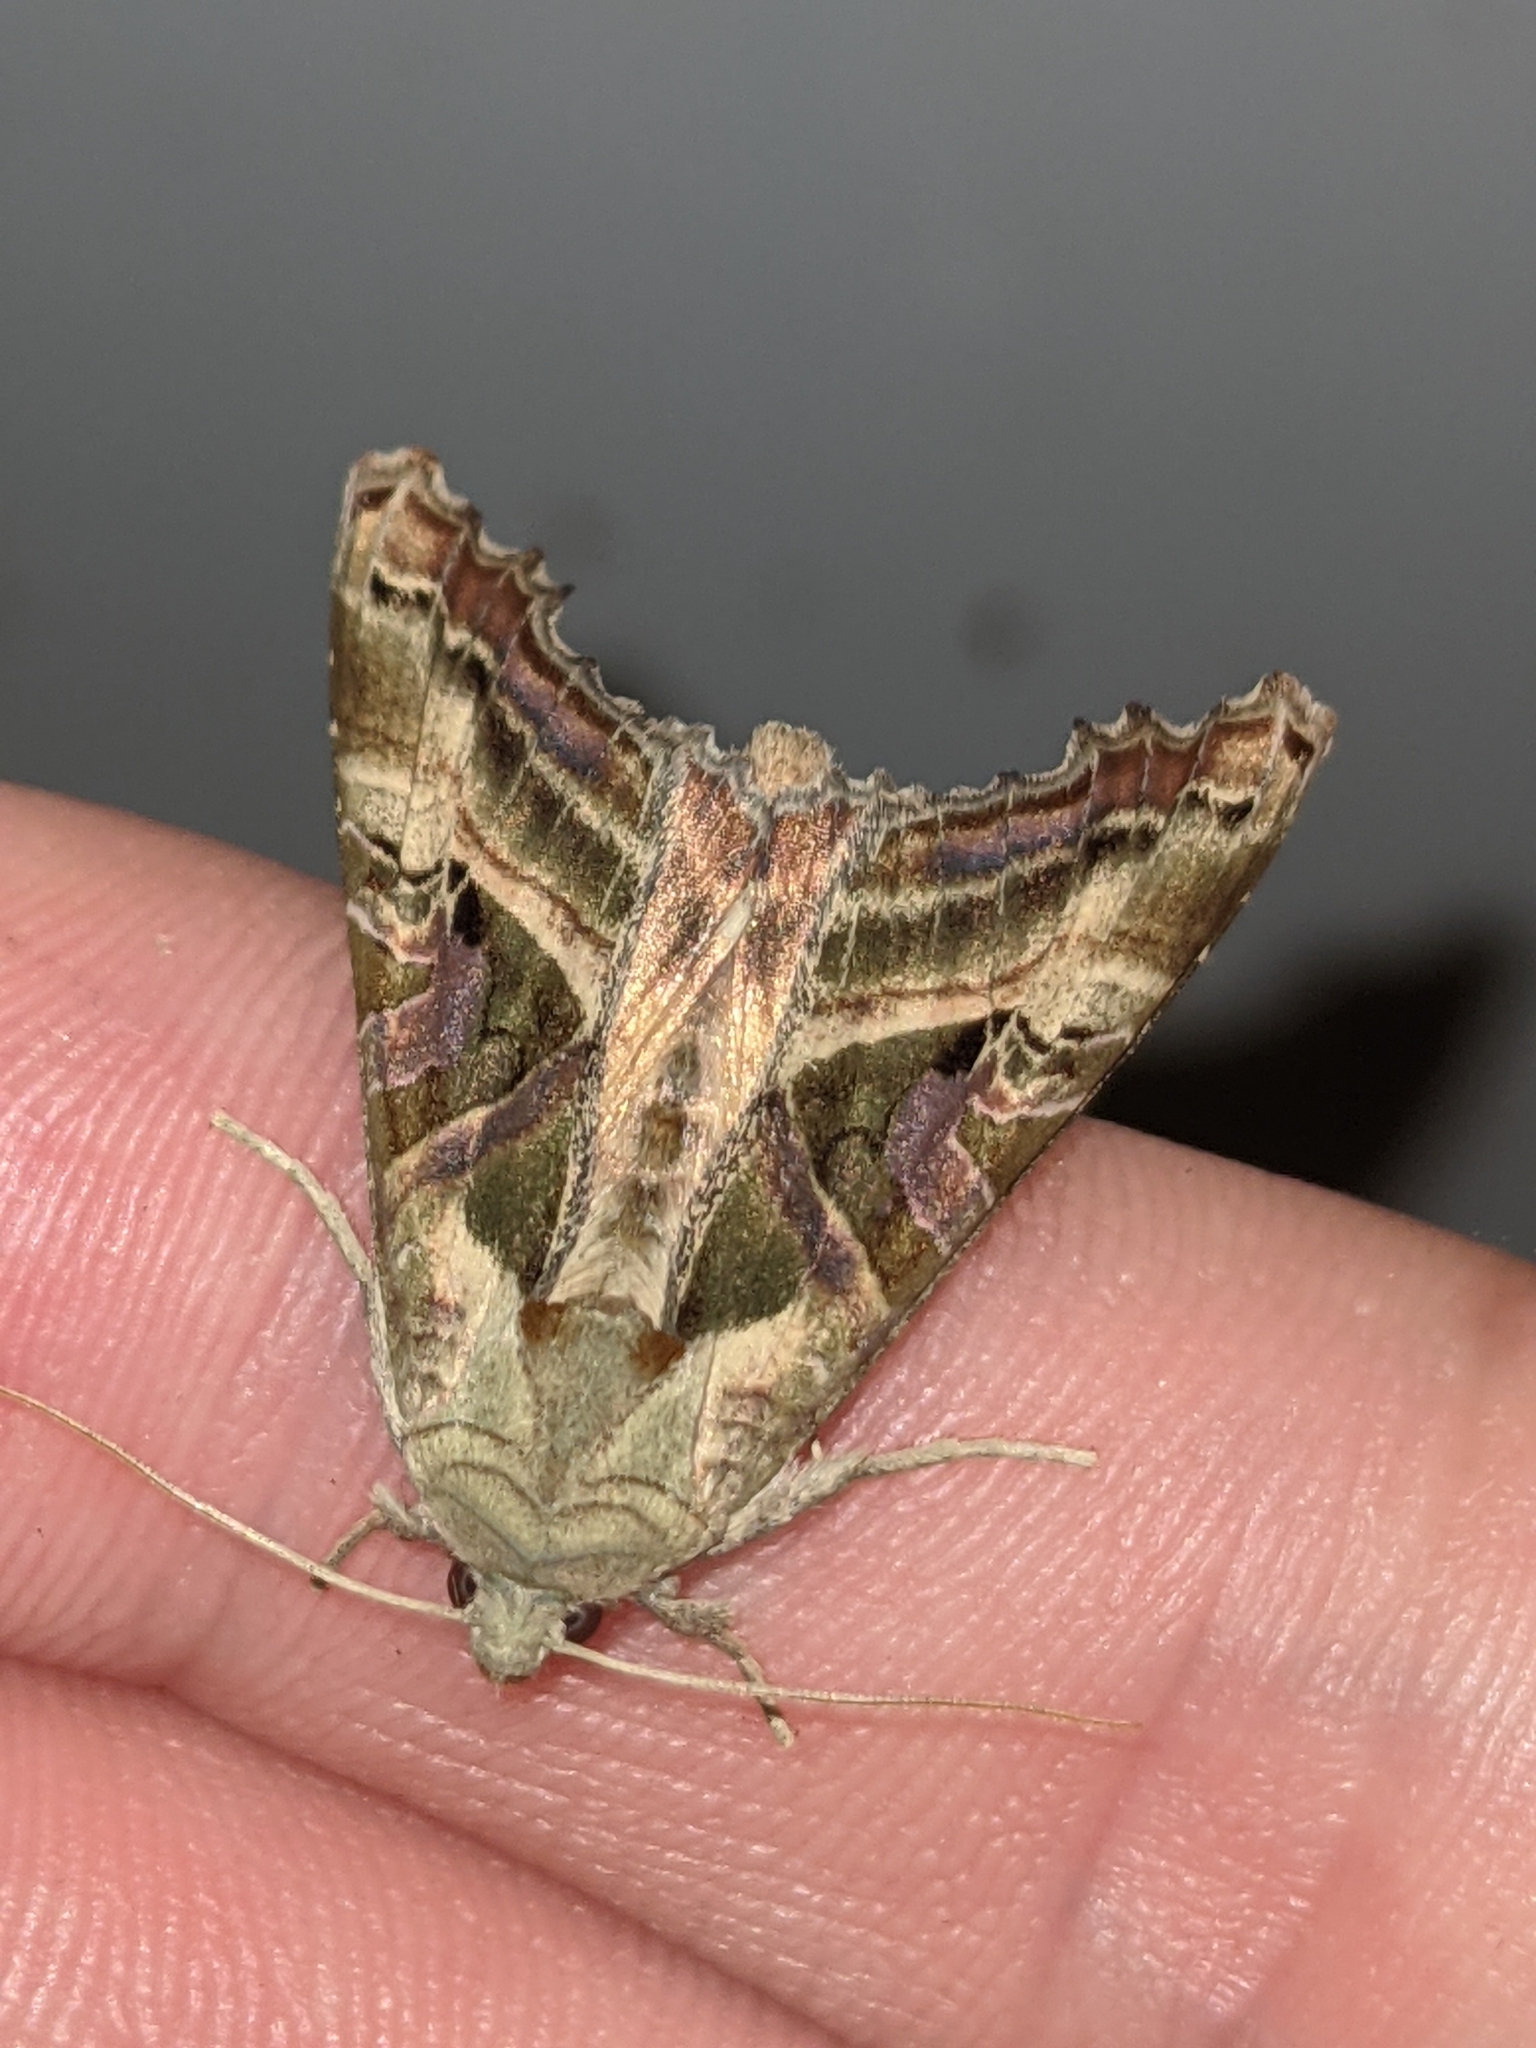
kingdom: Animalia
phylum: Arthropoda
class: Insecta
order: Lepidoptera
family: Noctuidae
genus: Phlogophora
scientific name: Phlogophora iris
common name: Olive angle shades
